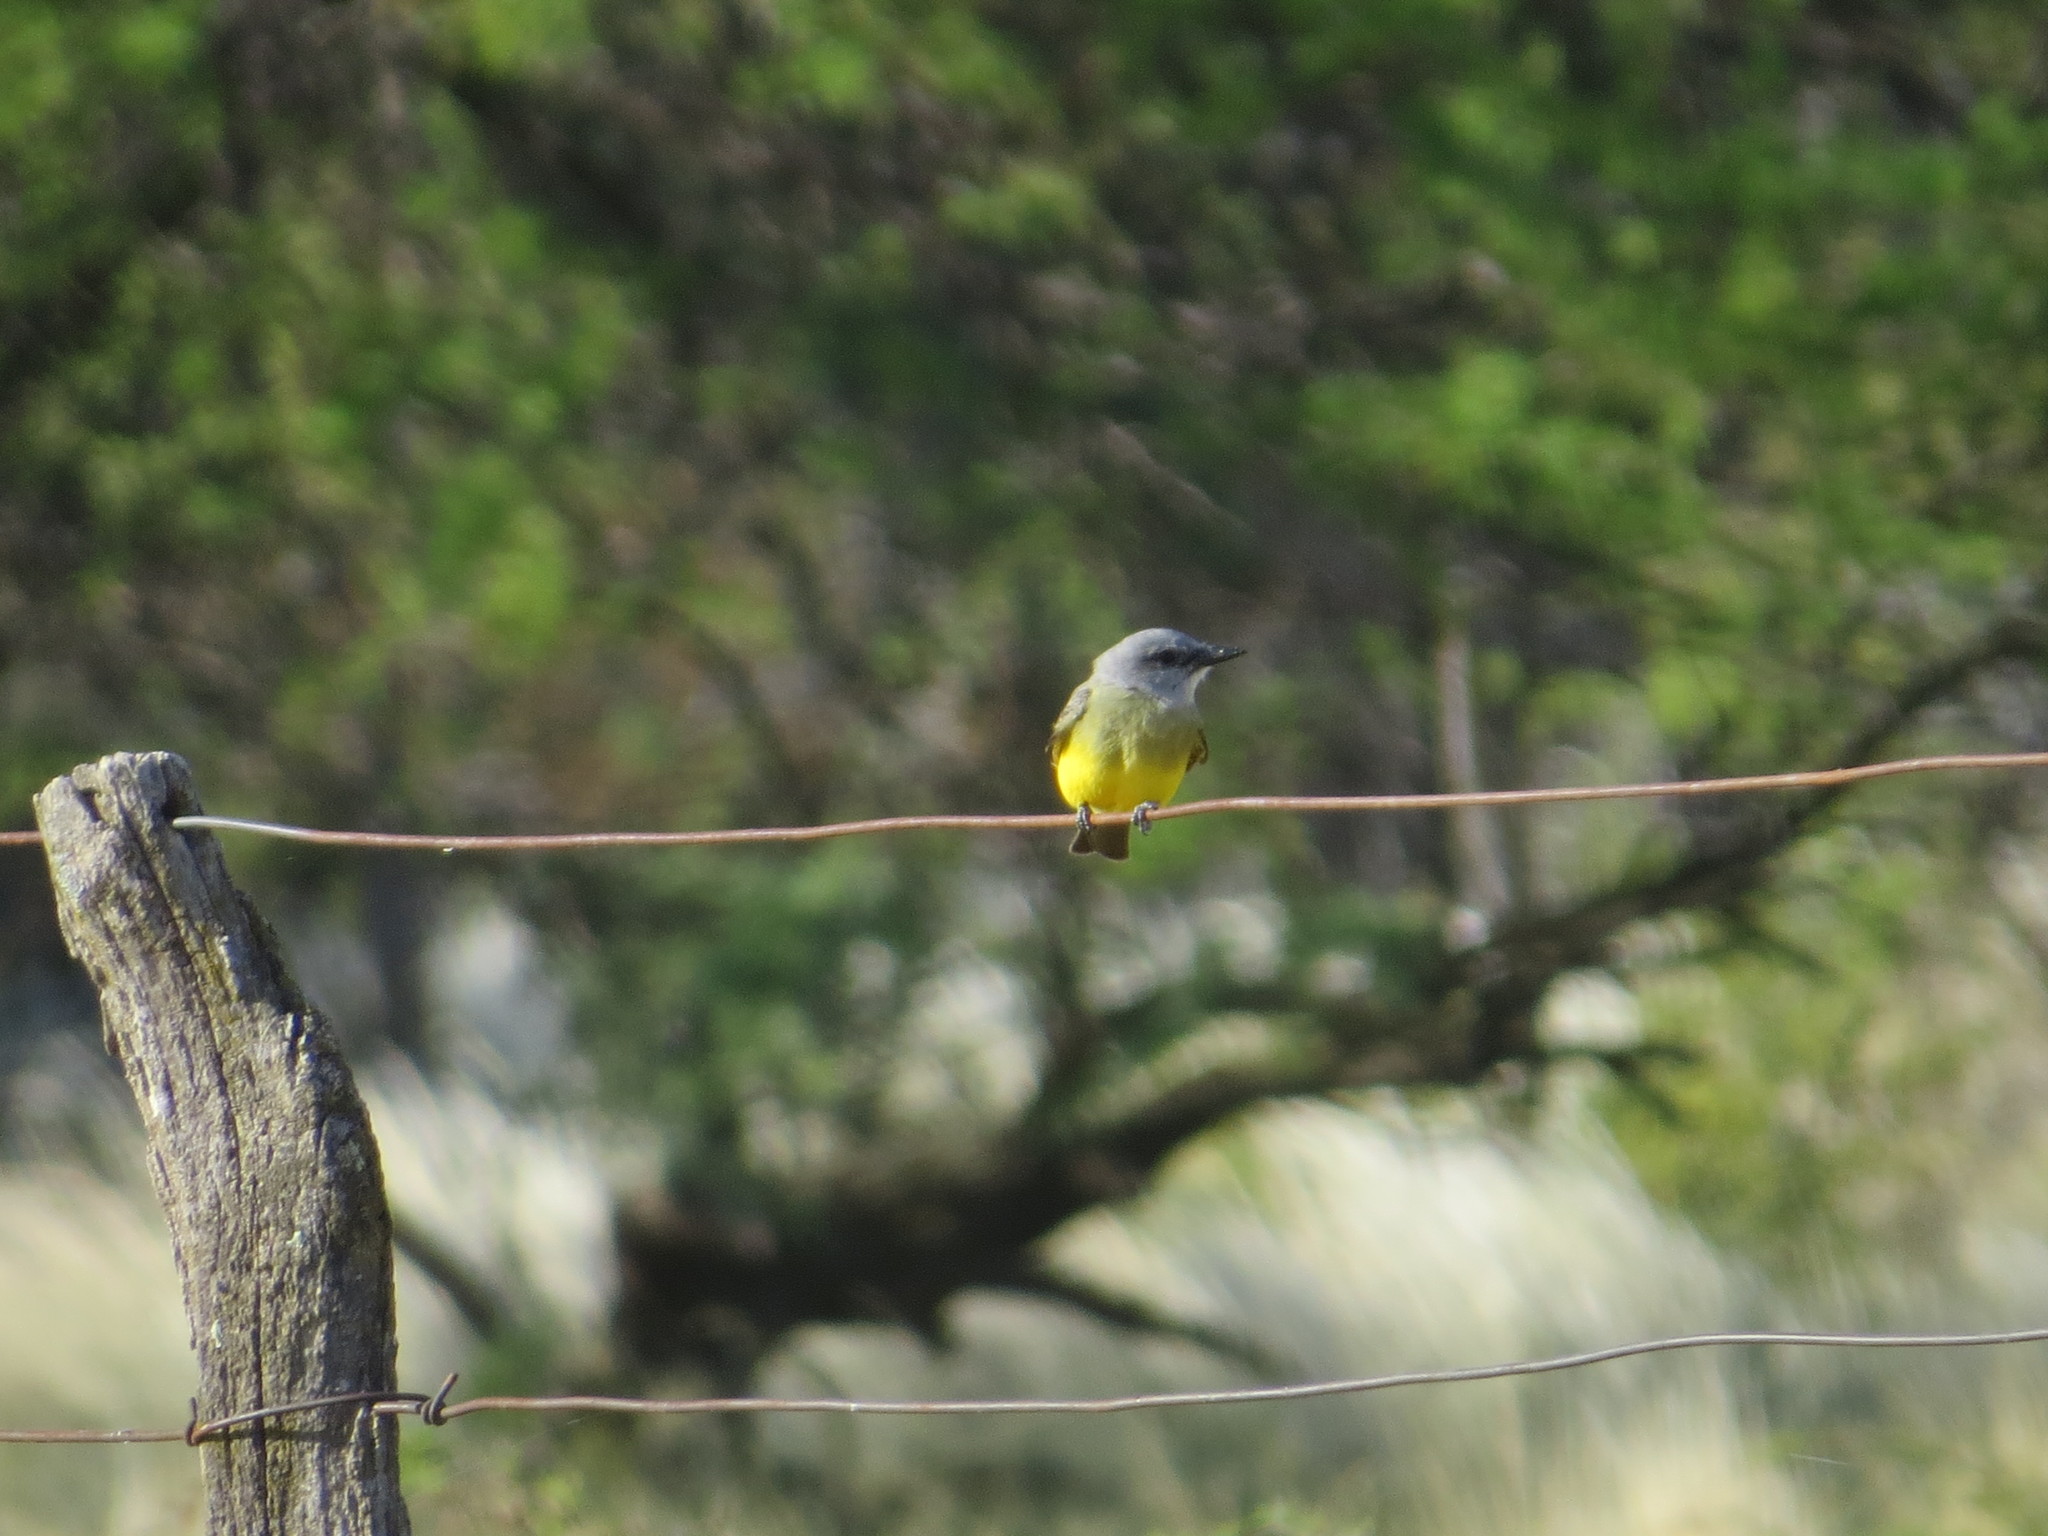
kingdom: Animalia
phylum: Chordata
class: Aves
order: Passeriformes
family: Tyrannidae
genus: Tyrannus
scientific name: Tyrannus melancholicus
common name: Tropical kingbird
